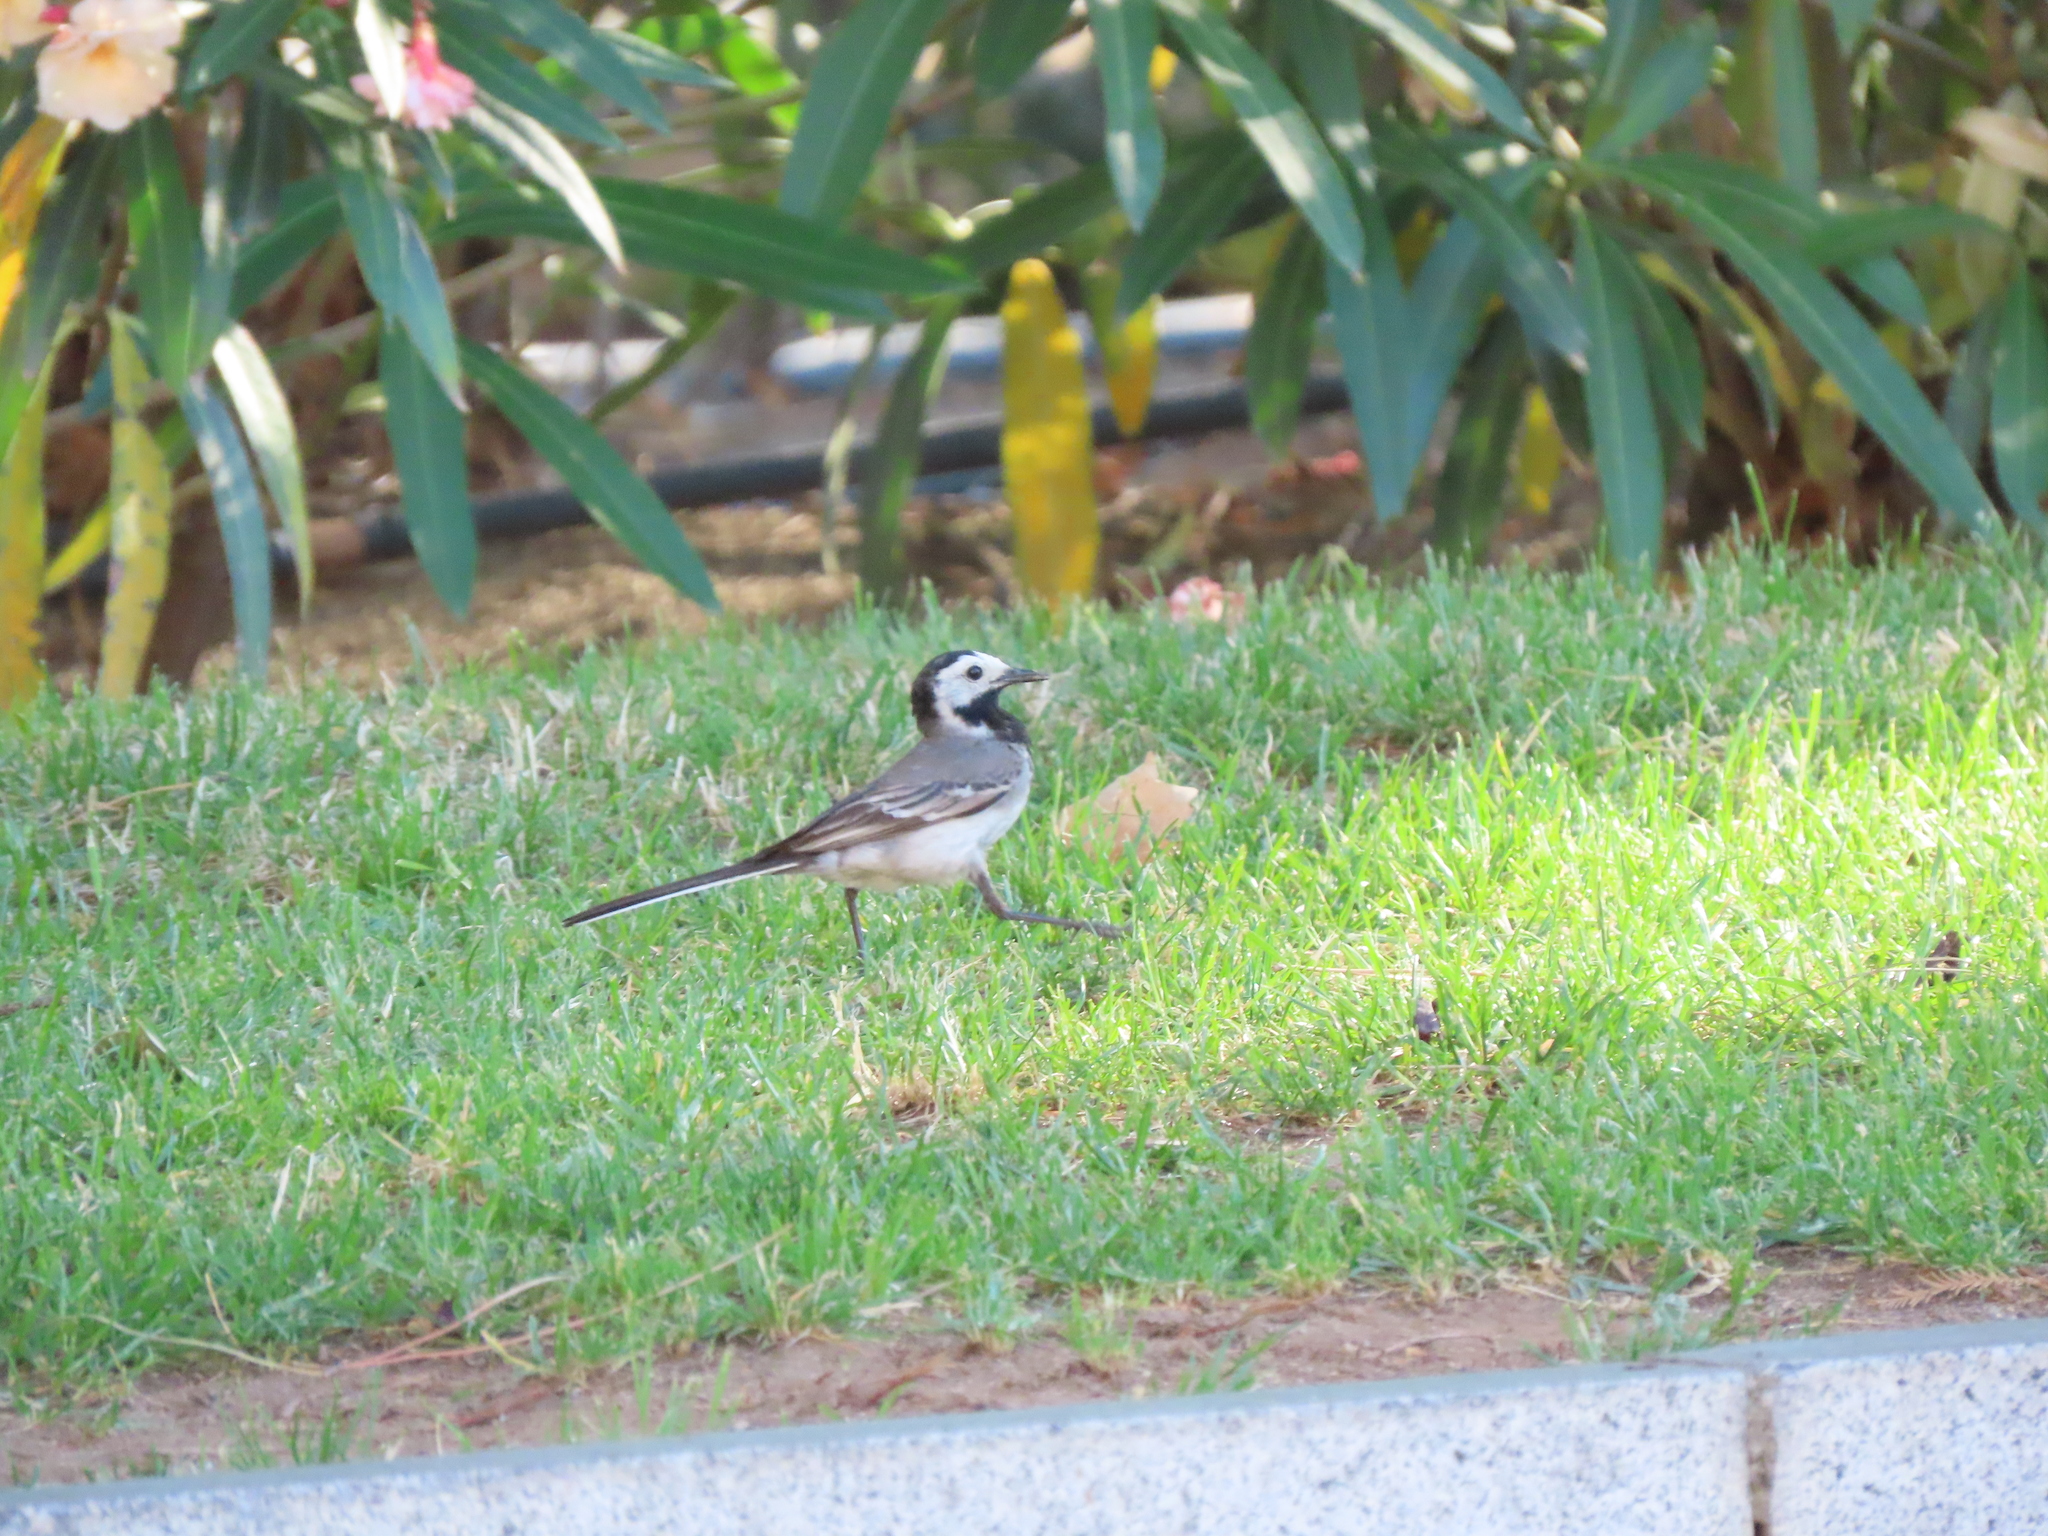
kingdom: Animalia
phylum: Chordata
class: Aves
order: Passeriformes
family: Motacillidae
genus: Motacilla
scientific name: Motacilla alba
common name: White wagtail
